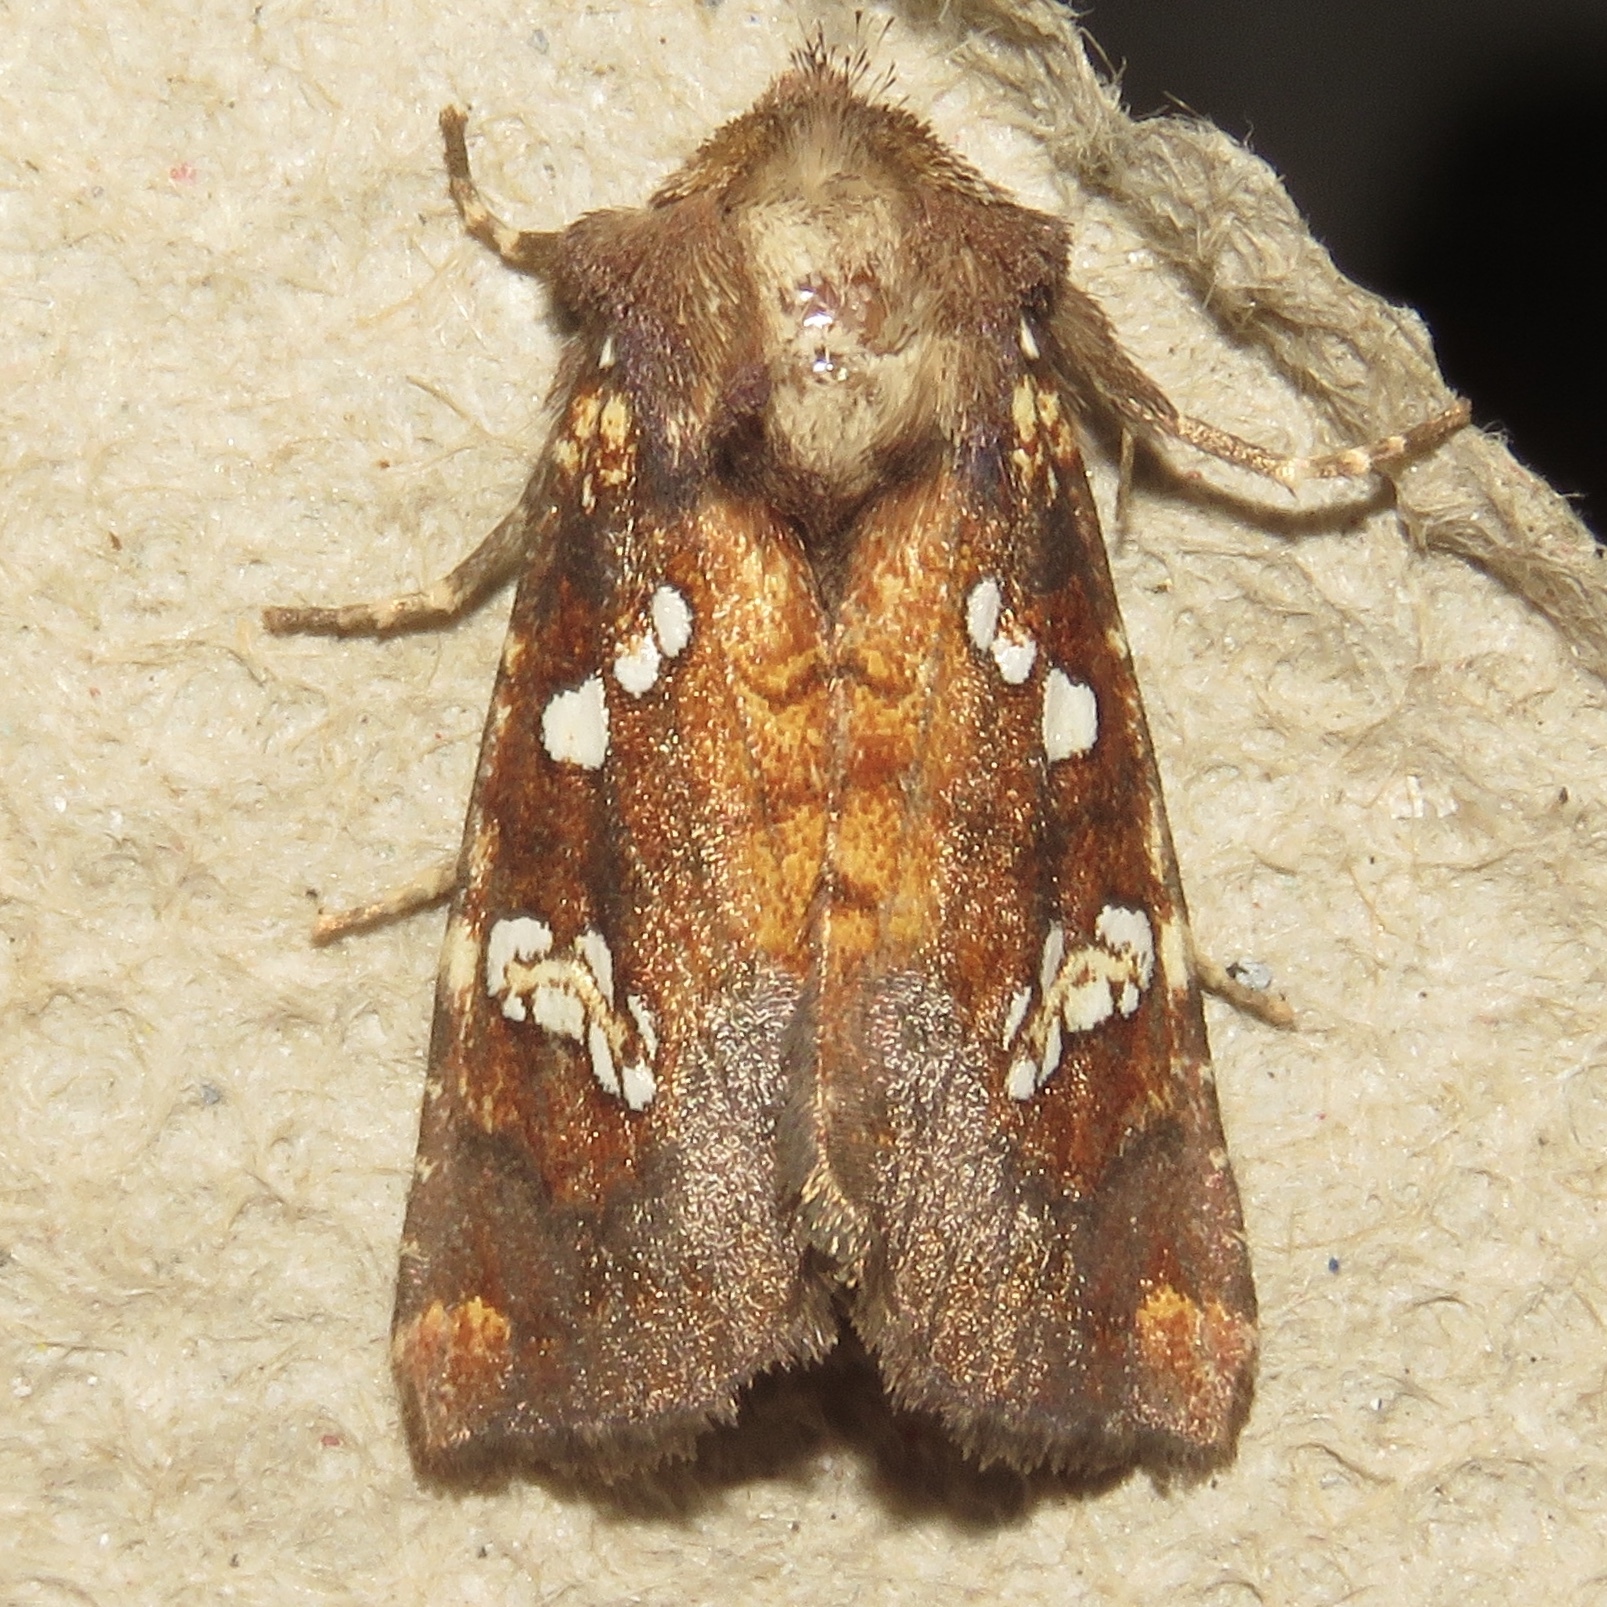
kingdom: Animalia
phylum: Arthropoda
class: Insecta
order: Lepidoptera
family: Noctuidae
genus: Papaipema
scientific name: Papaipema nepheleptena
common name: Turtle head borer moth
